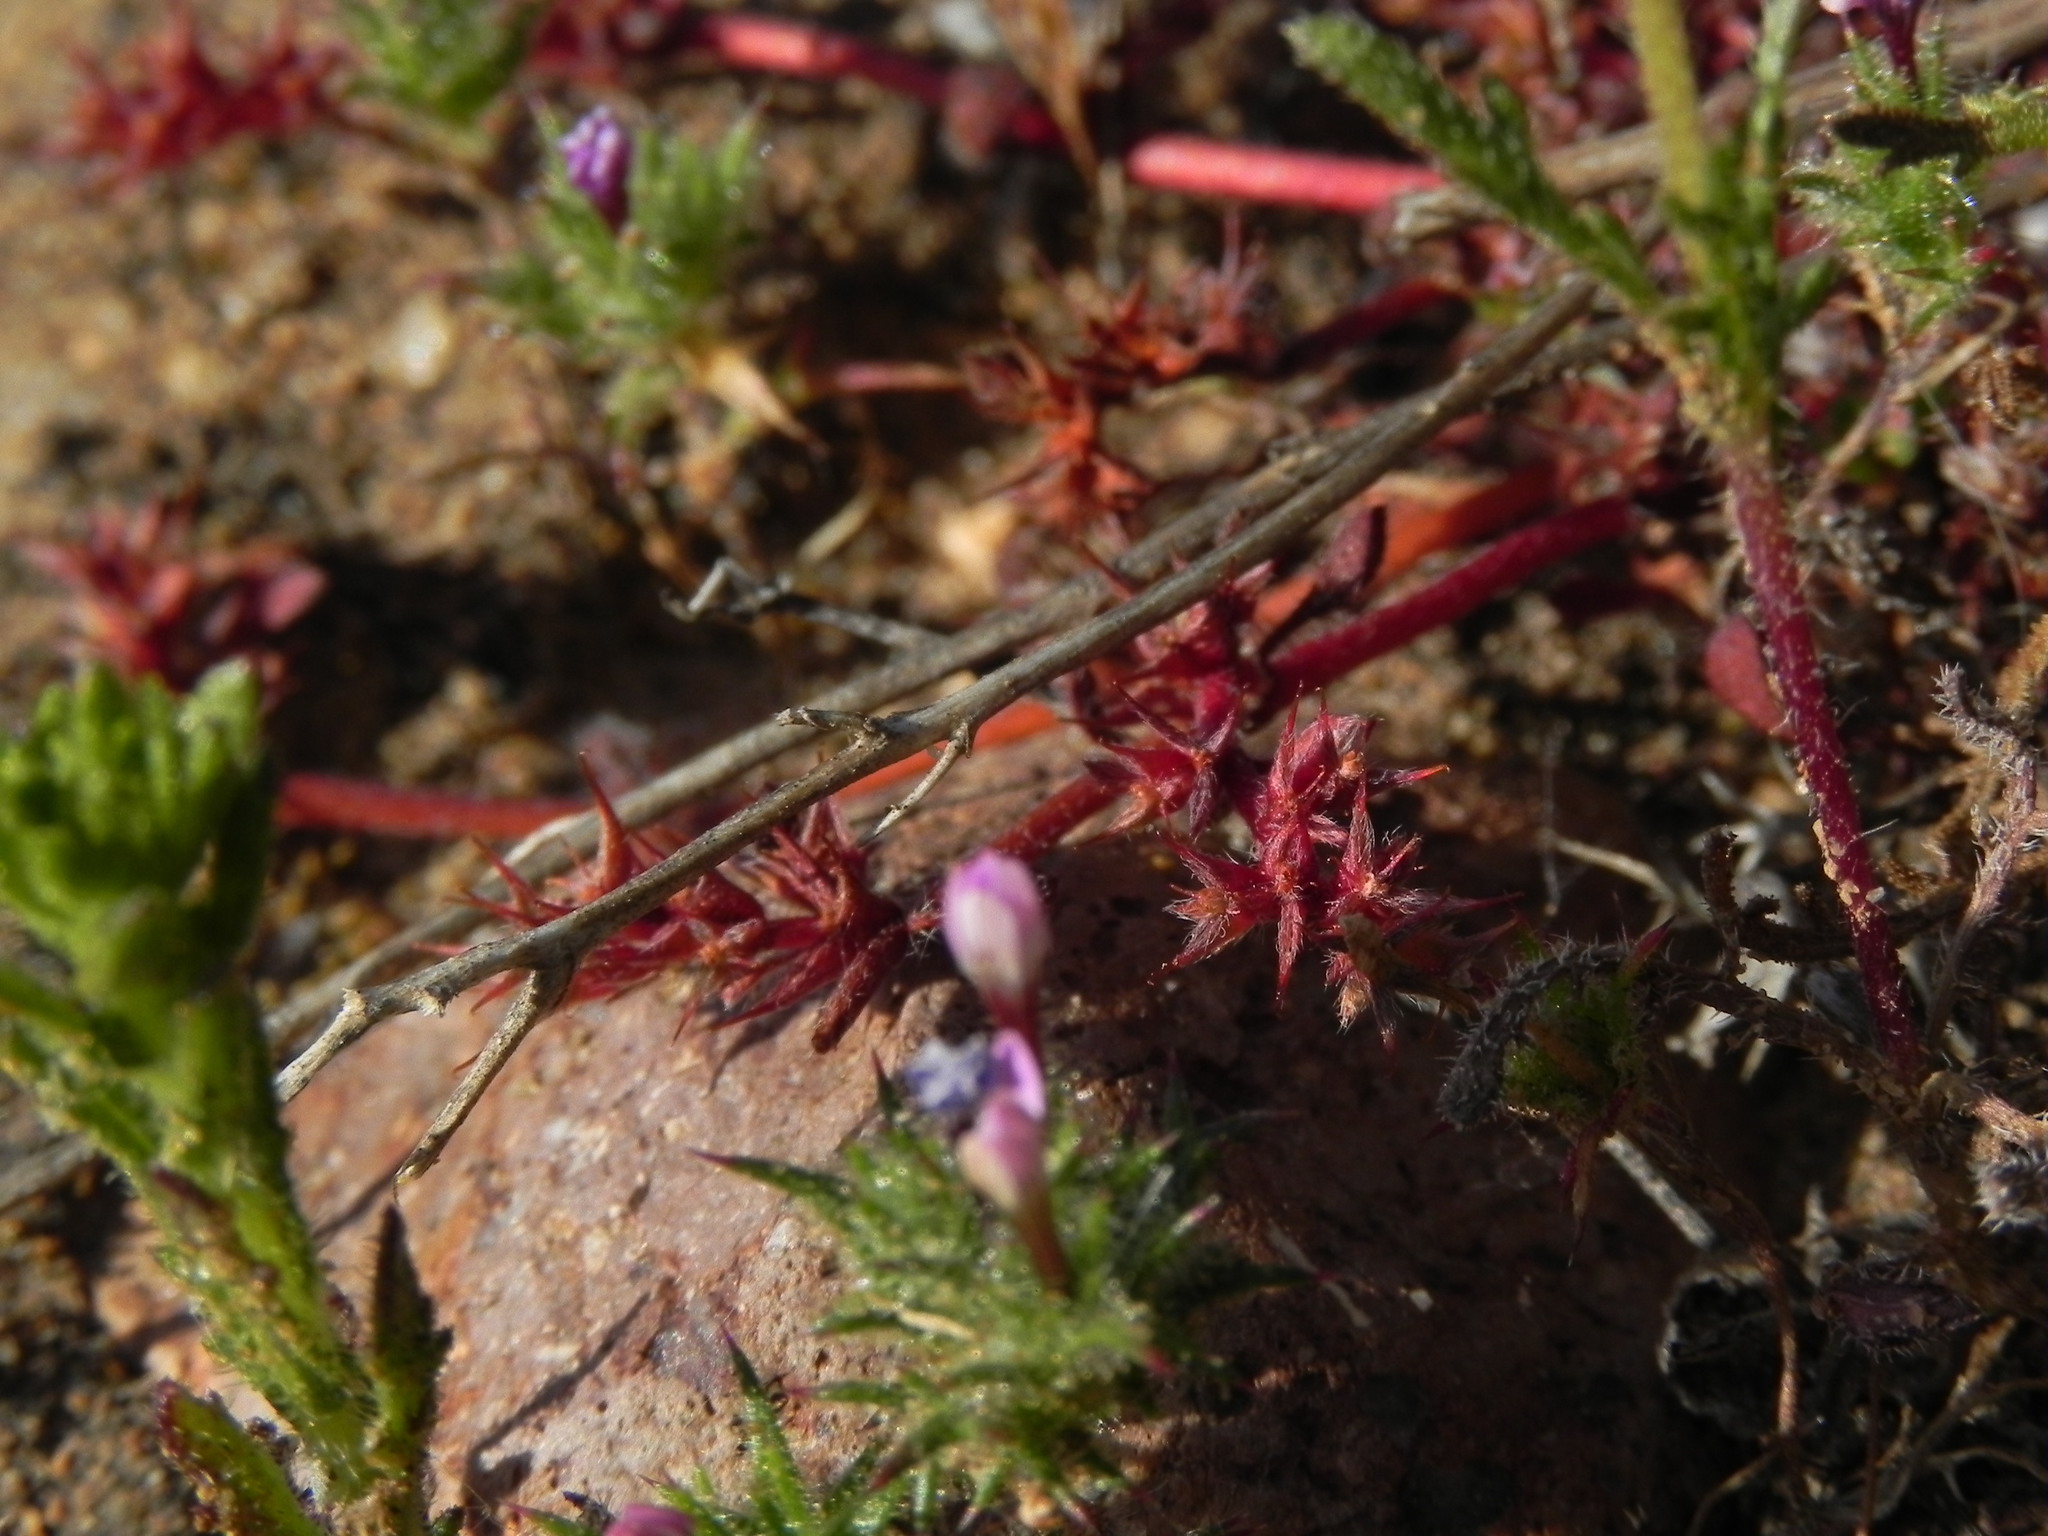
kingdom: Plantae
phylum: Tracheophyta
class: Magnoliopsida
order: Caryophyllales
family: Polygonaceae
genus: Chorizanthe
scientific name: Chorizanthe polygonoides
